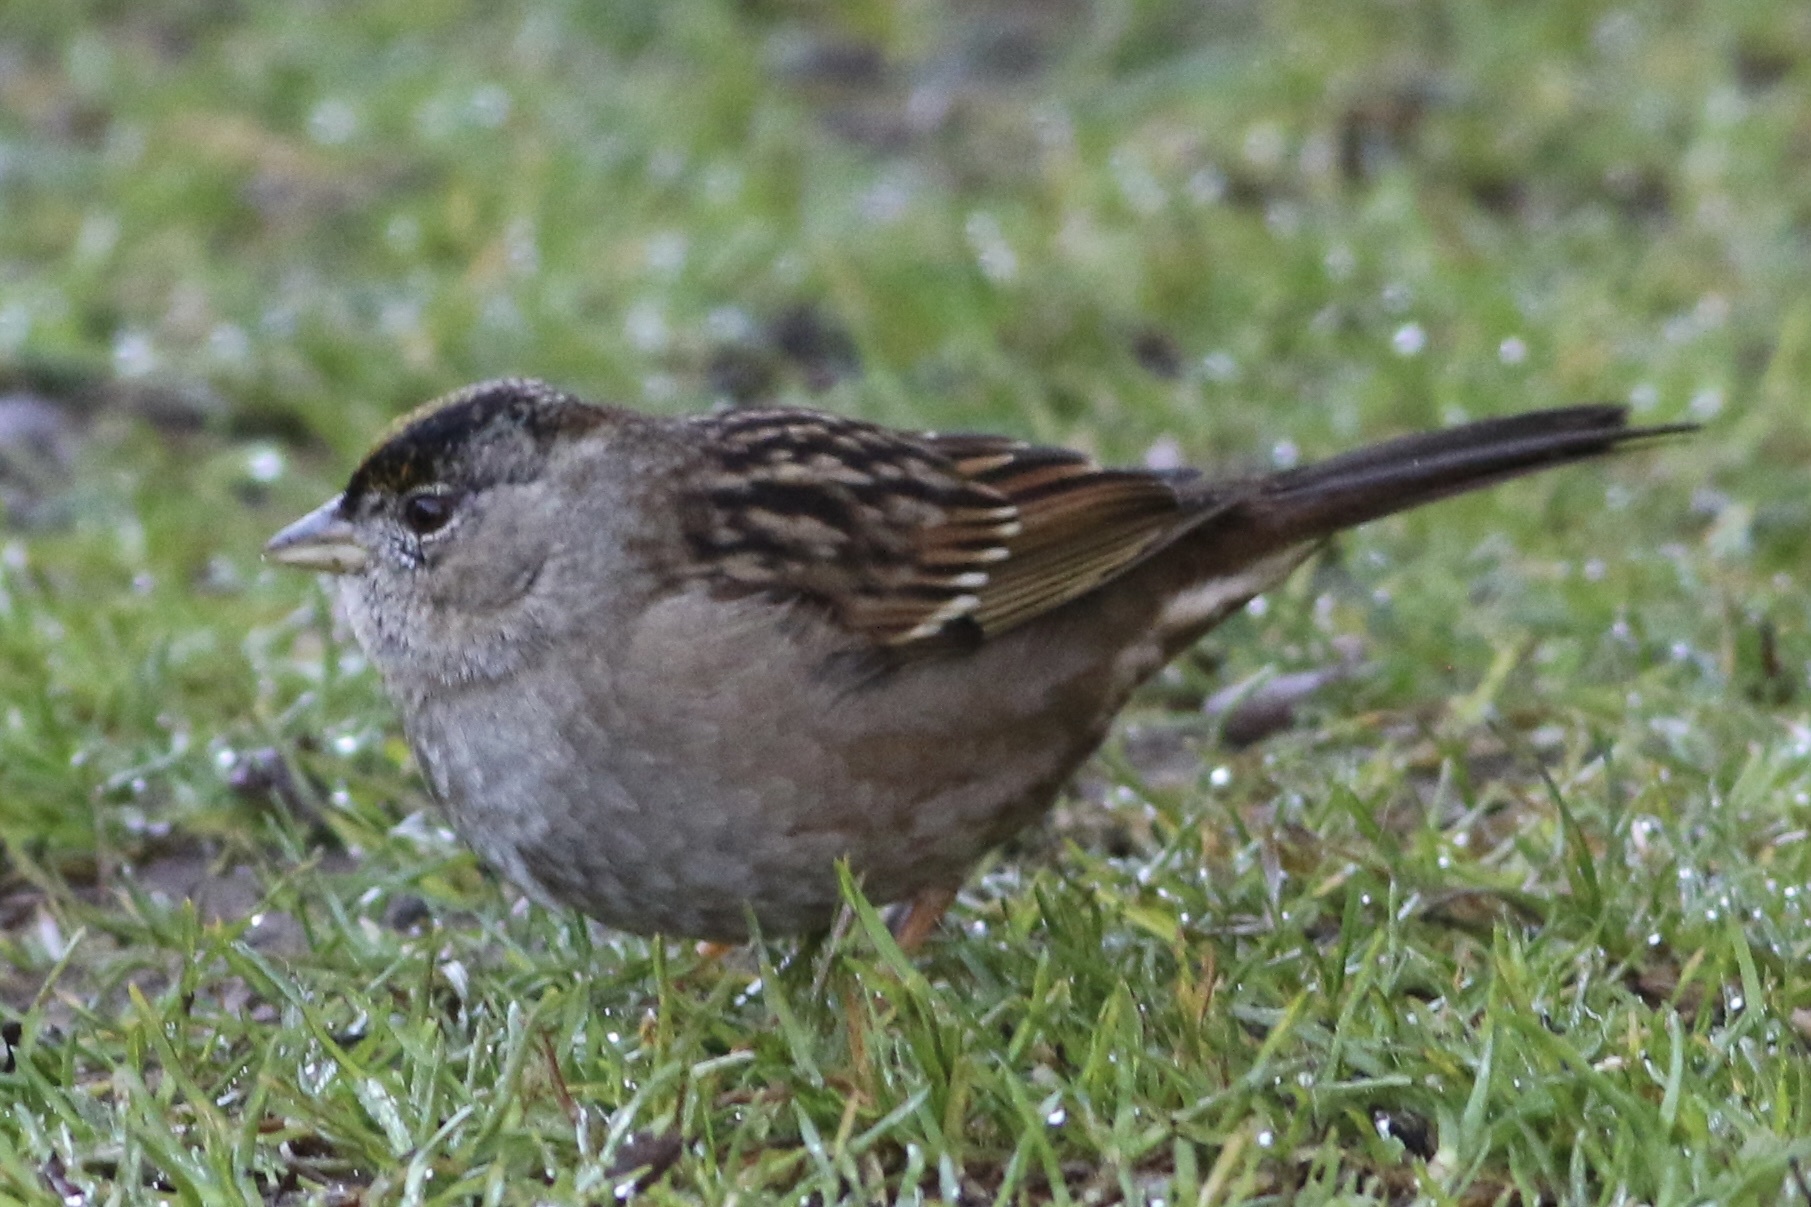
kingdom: Animalia
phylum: Chordata
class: Aves
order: Passeriformes
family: Passerellidae
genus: Zonotrichia
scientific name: Zonotrichia atricapilla
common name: Golden-crowned sparrow
